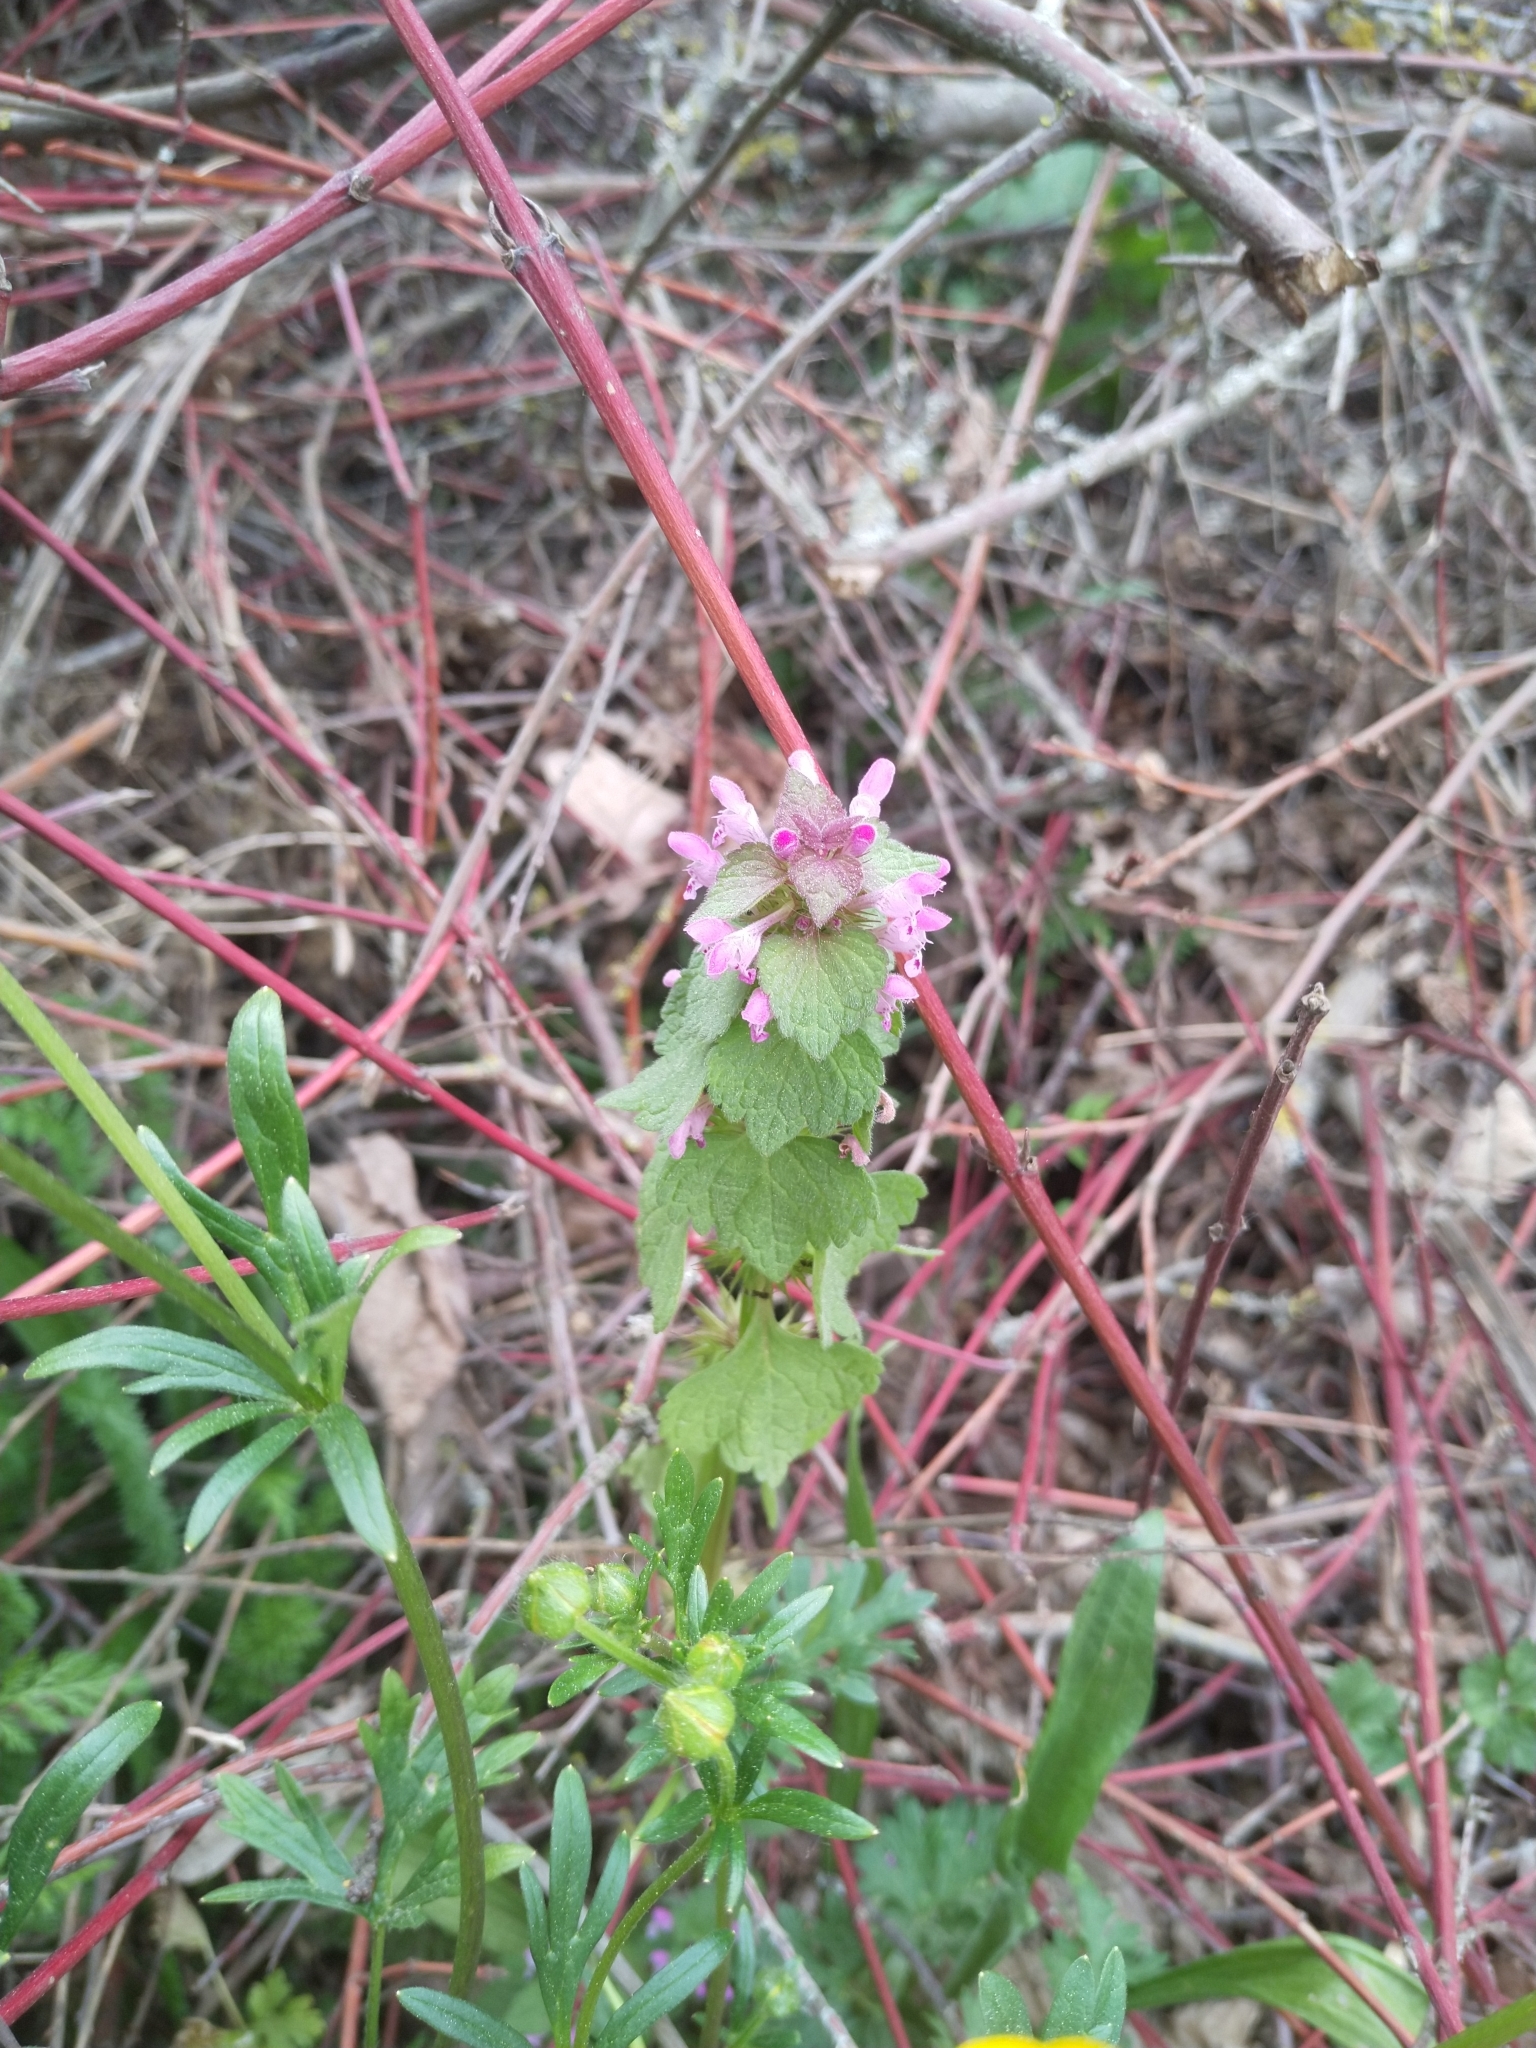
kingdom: Plantae
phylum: Tracheophyta
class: Magnoliopsida
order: Lamiales
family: Lamiaceae
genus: Lamium
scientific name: Lamium purpureum
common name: Red dead-nettle
